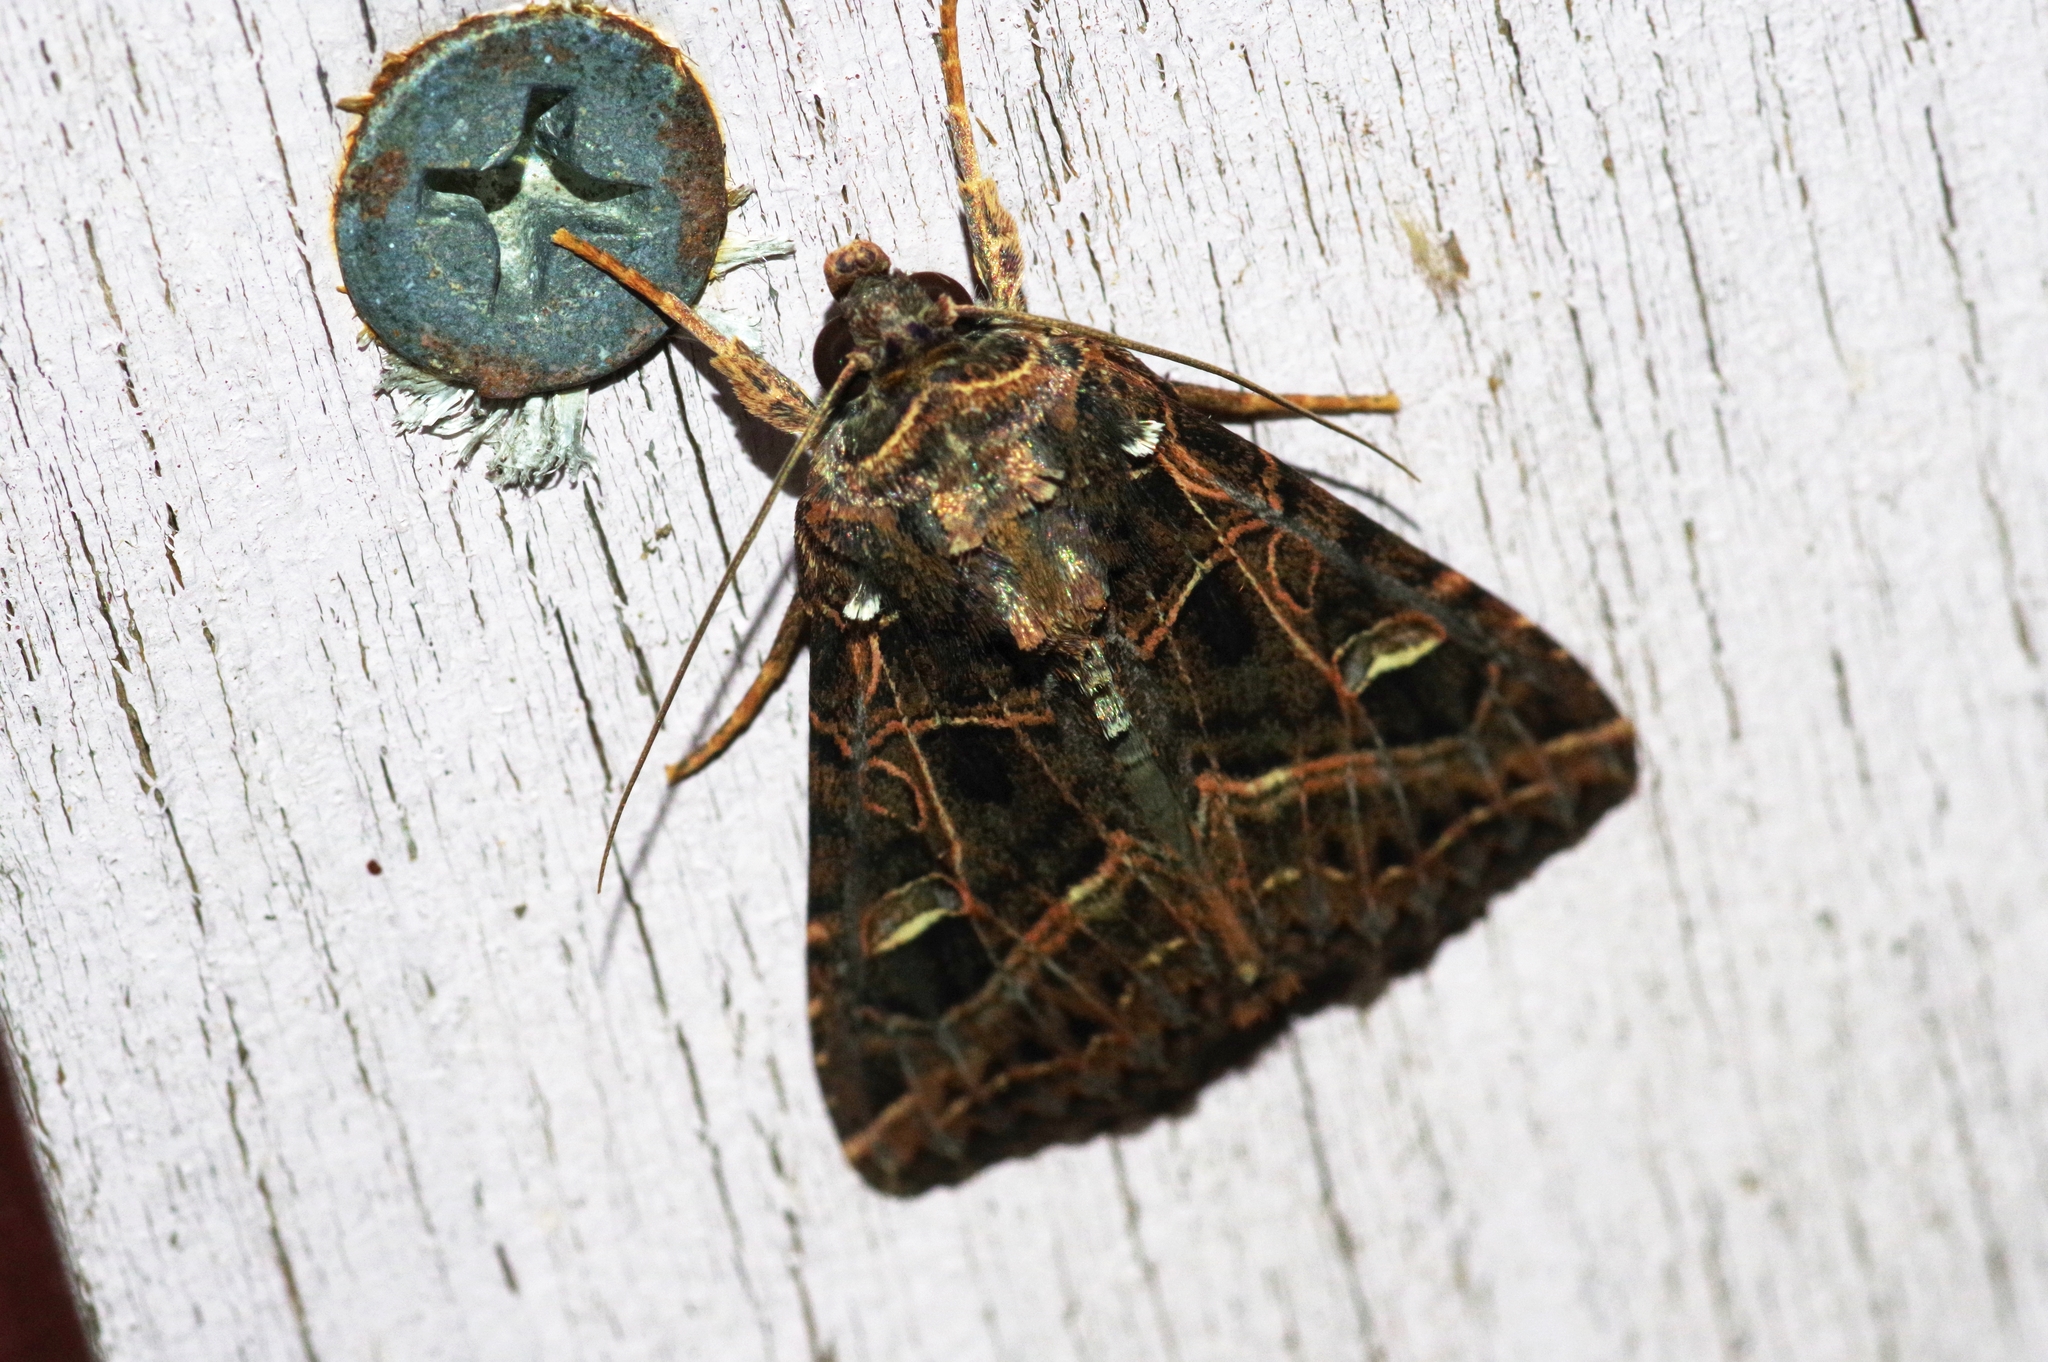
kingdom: Animalia
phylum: Arthropoda
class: Insecta
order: Lepidoptera
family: Noctuidae
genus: Dictyestra
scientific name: Dictyestra dissectus
